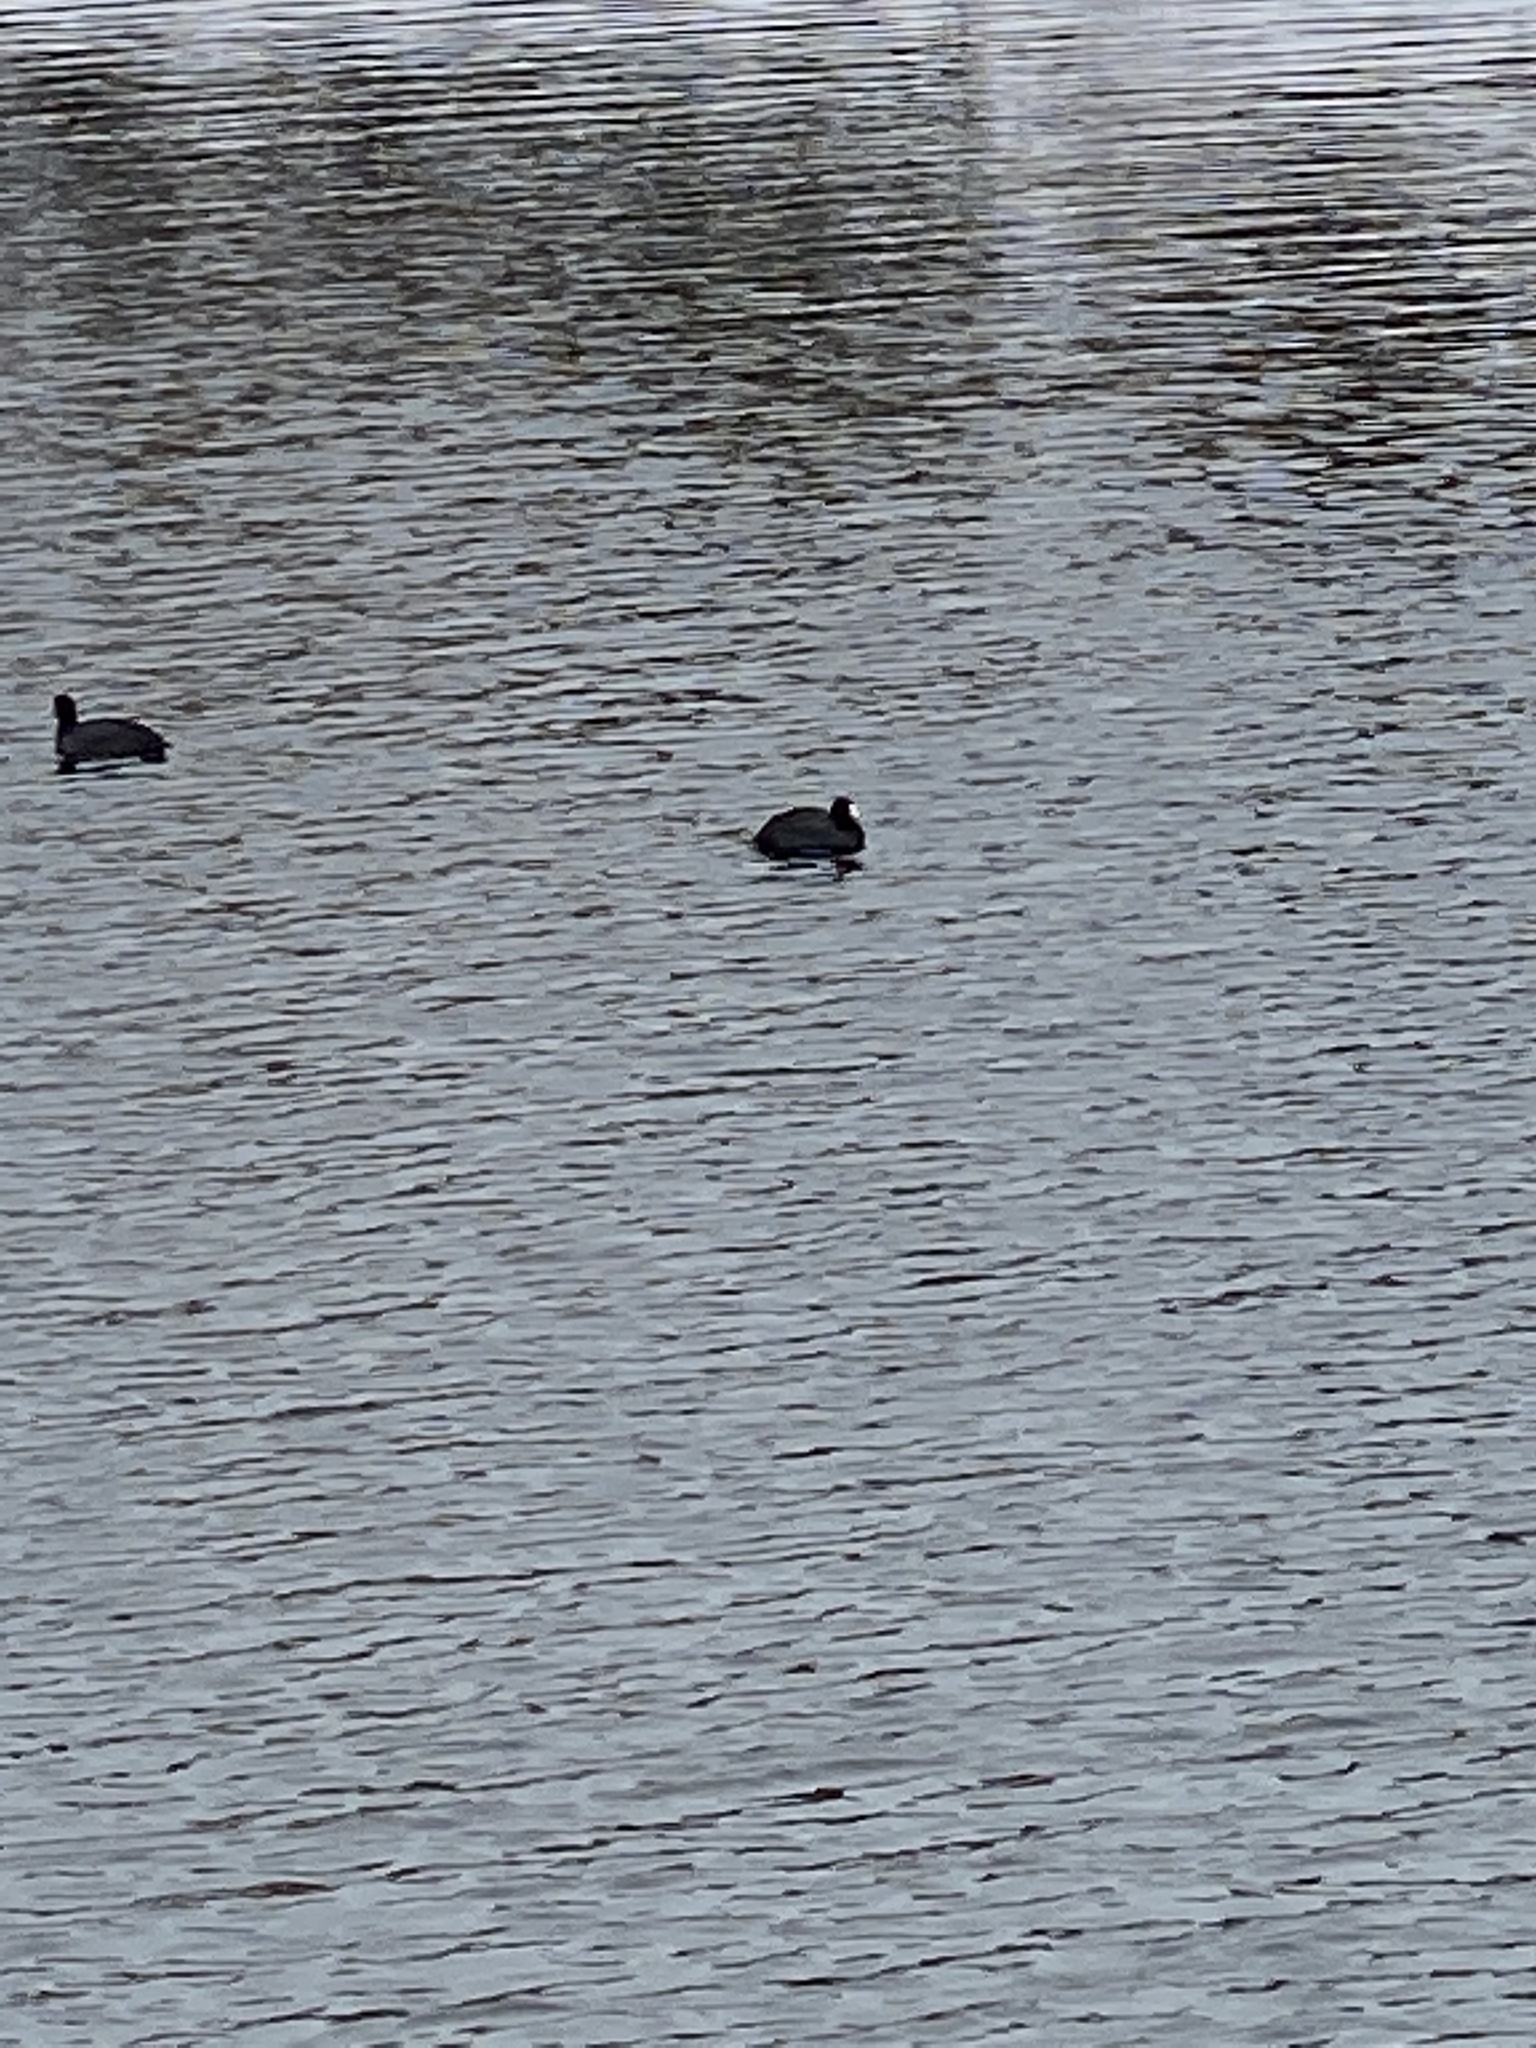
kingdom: Animalia
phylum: Chordata
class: Aves
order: Gruiformes
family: Rallidae
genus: Fulica
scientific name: Fulica americana
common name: American coot
